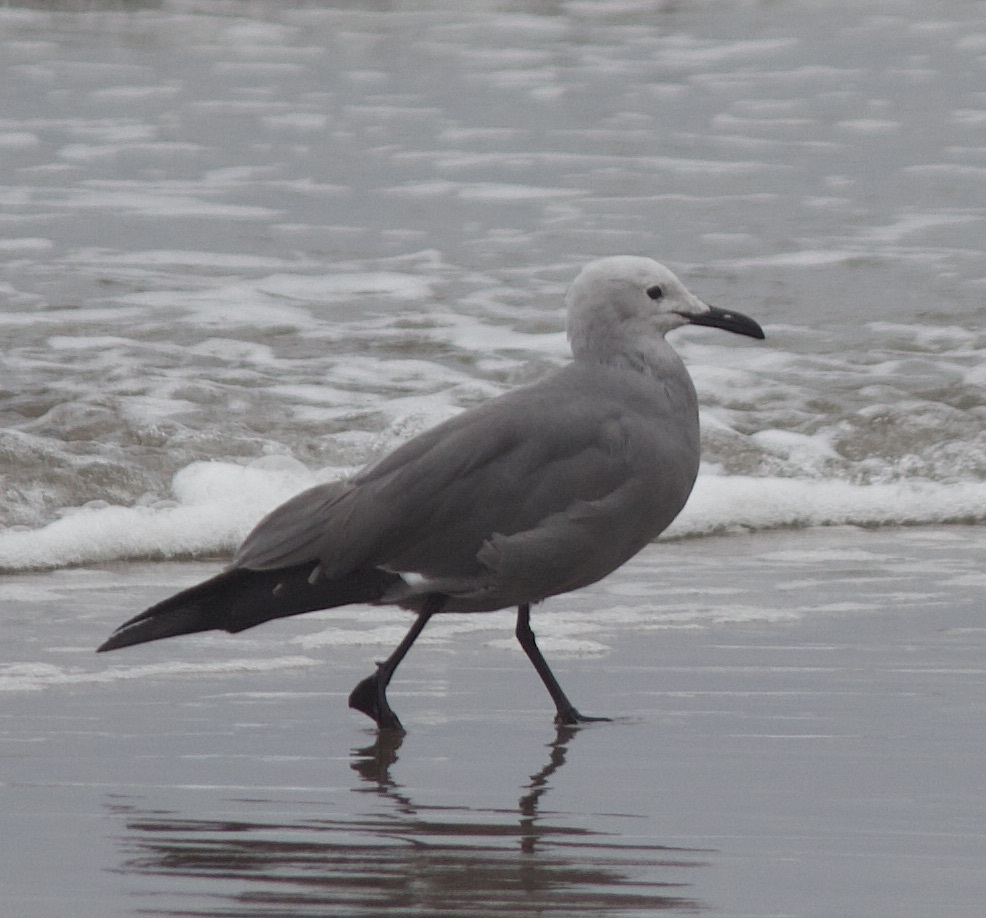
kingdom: Animalia
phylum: Chordata
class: Aves
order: Charadriiformes
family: Laridae
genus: Leucophaeus
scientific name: Leucophaeus modestus
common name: Gray gull
